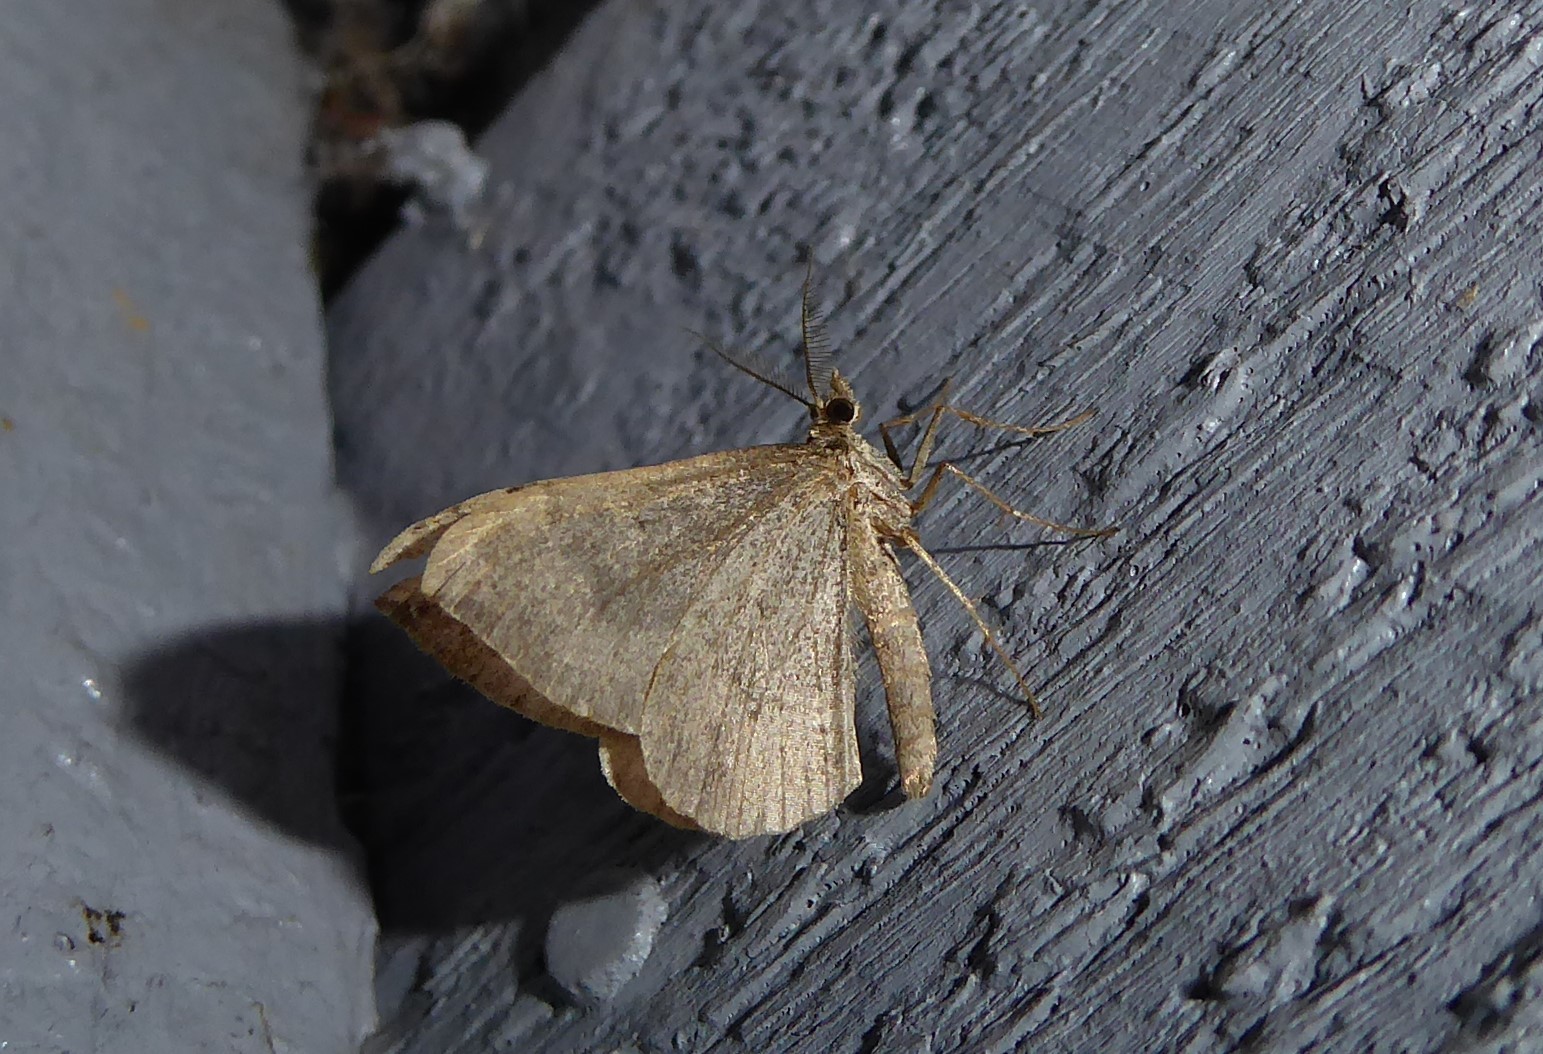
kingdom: Animalia
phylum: Arthropoda
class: Insecta
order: Lepidoptera
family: Geometridae
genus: Epyaxa
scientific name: Epyaxa rosearia
